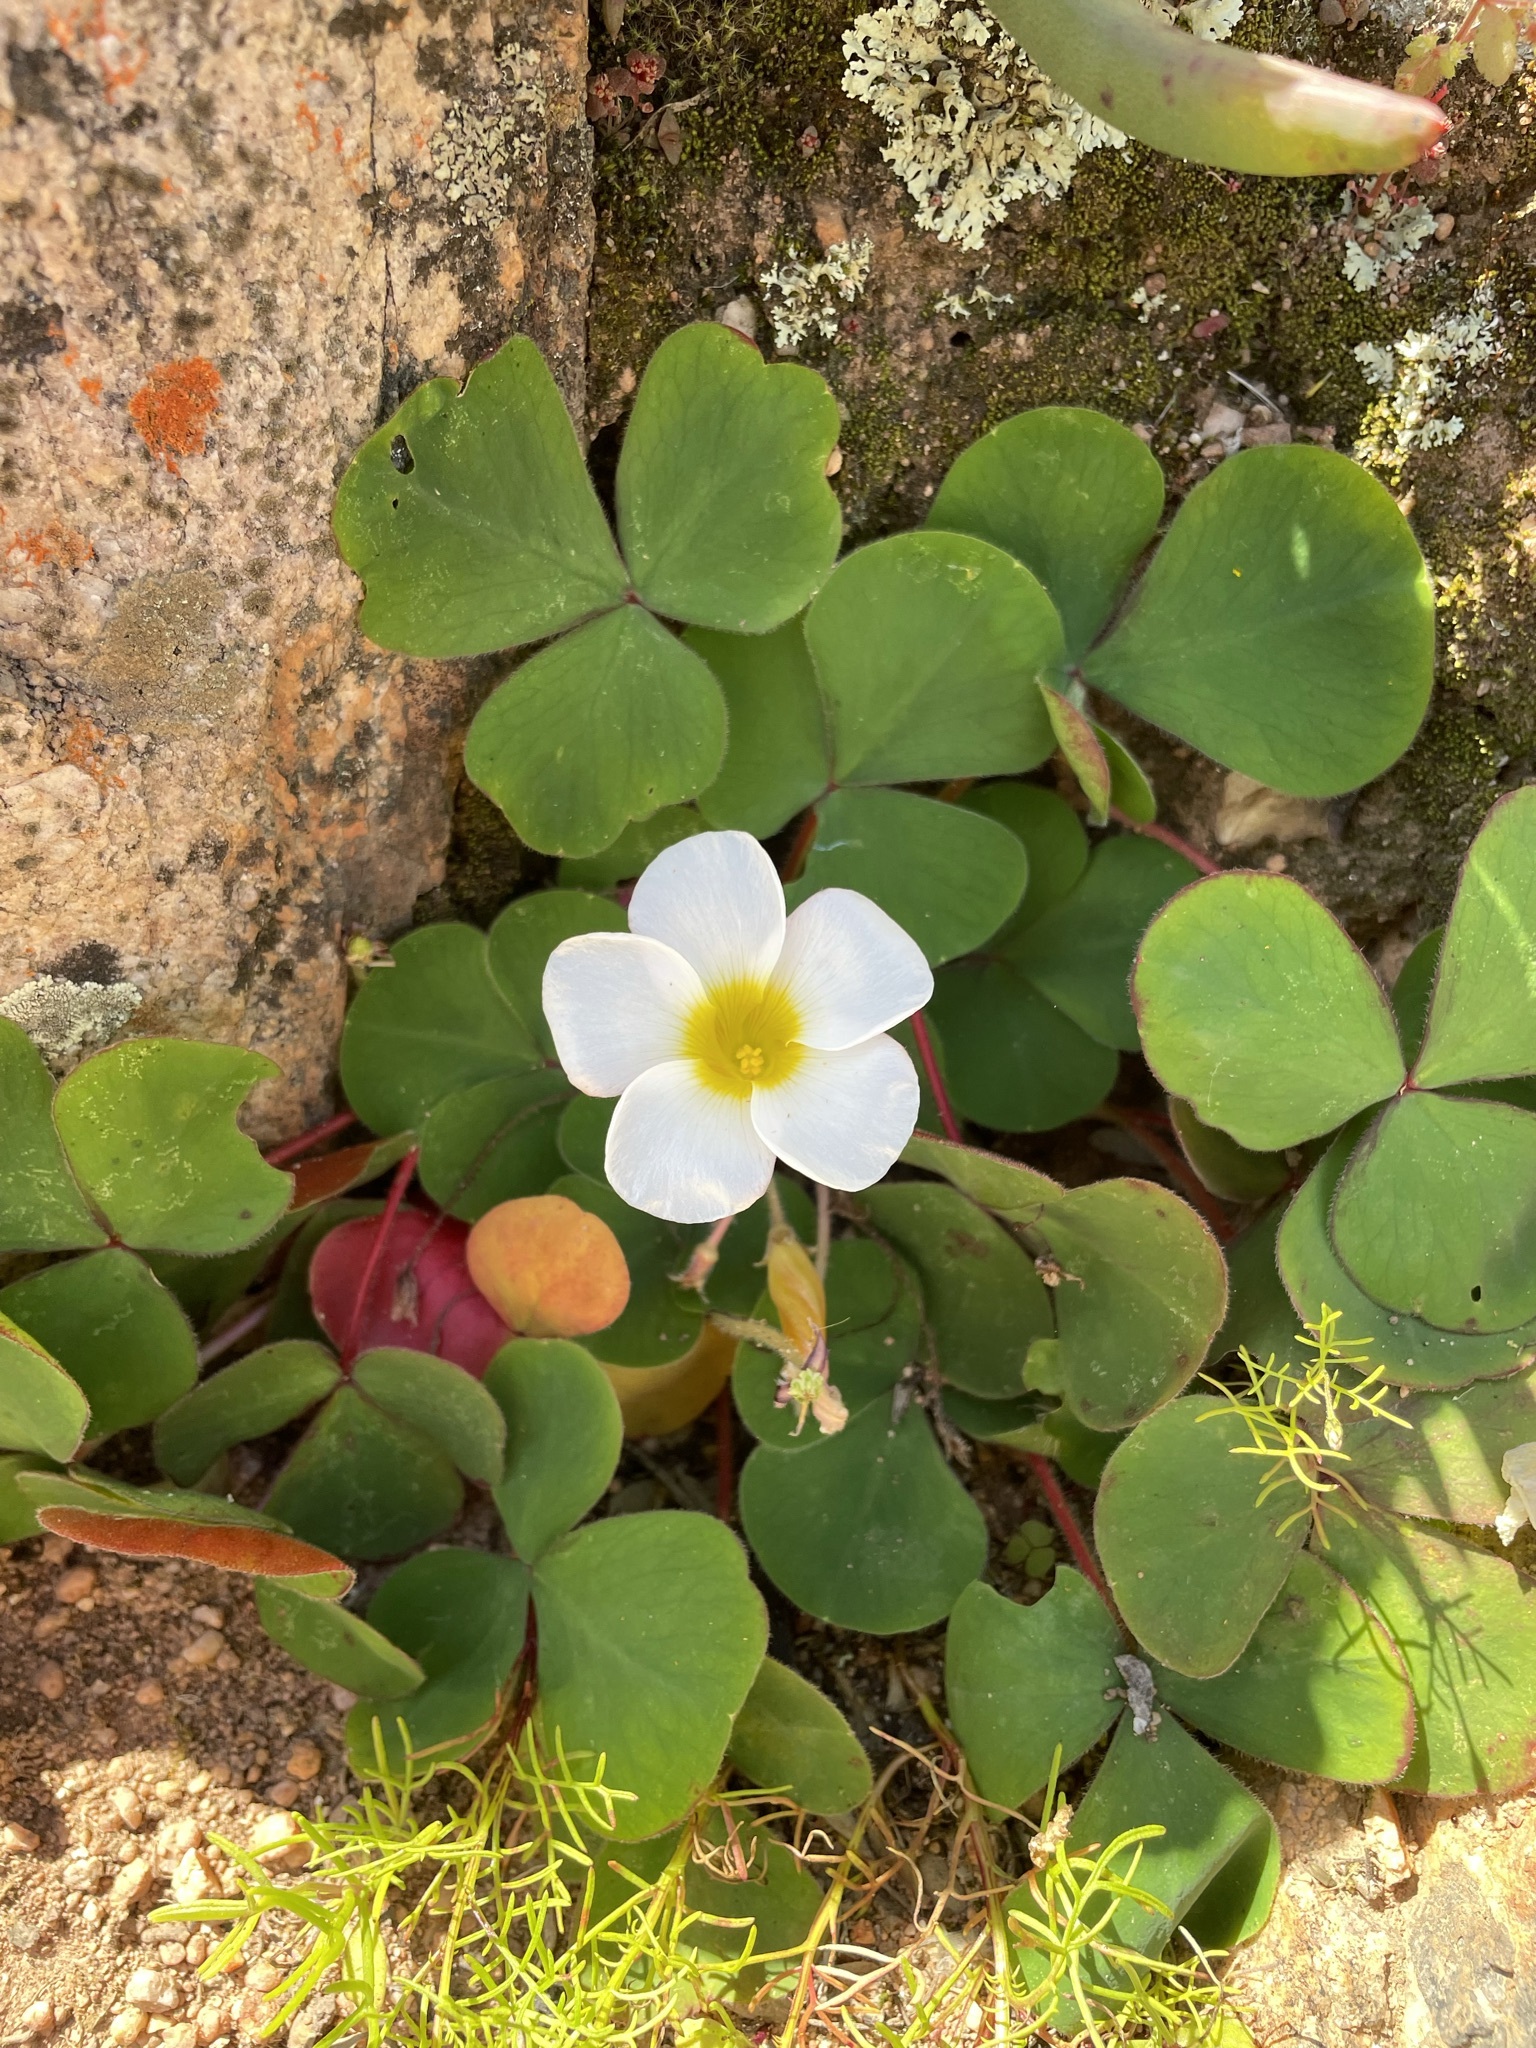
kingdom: Plantae
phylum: Tracheophyta
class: Magnoliopsida
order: Oxalidales
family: Oxalidaceae
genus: Oxalis
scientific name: Oxalis purpurea
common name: Purple woodsorrel
